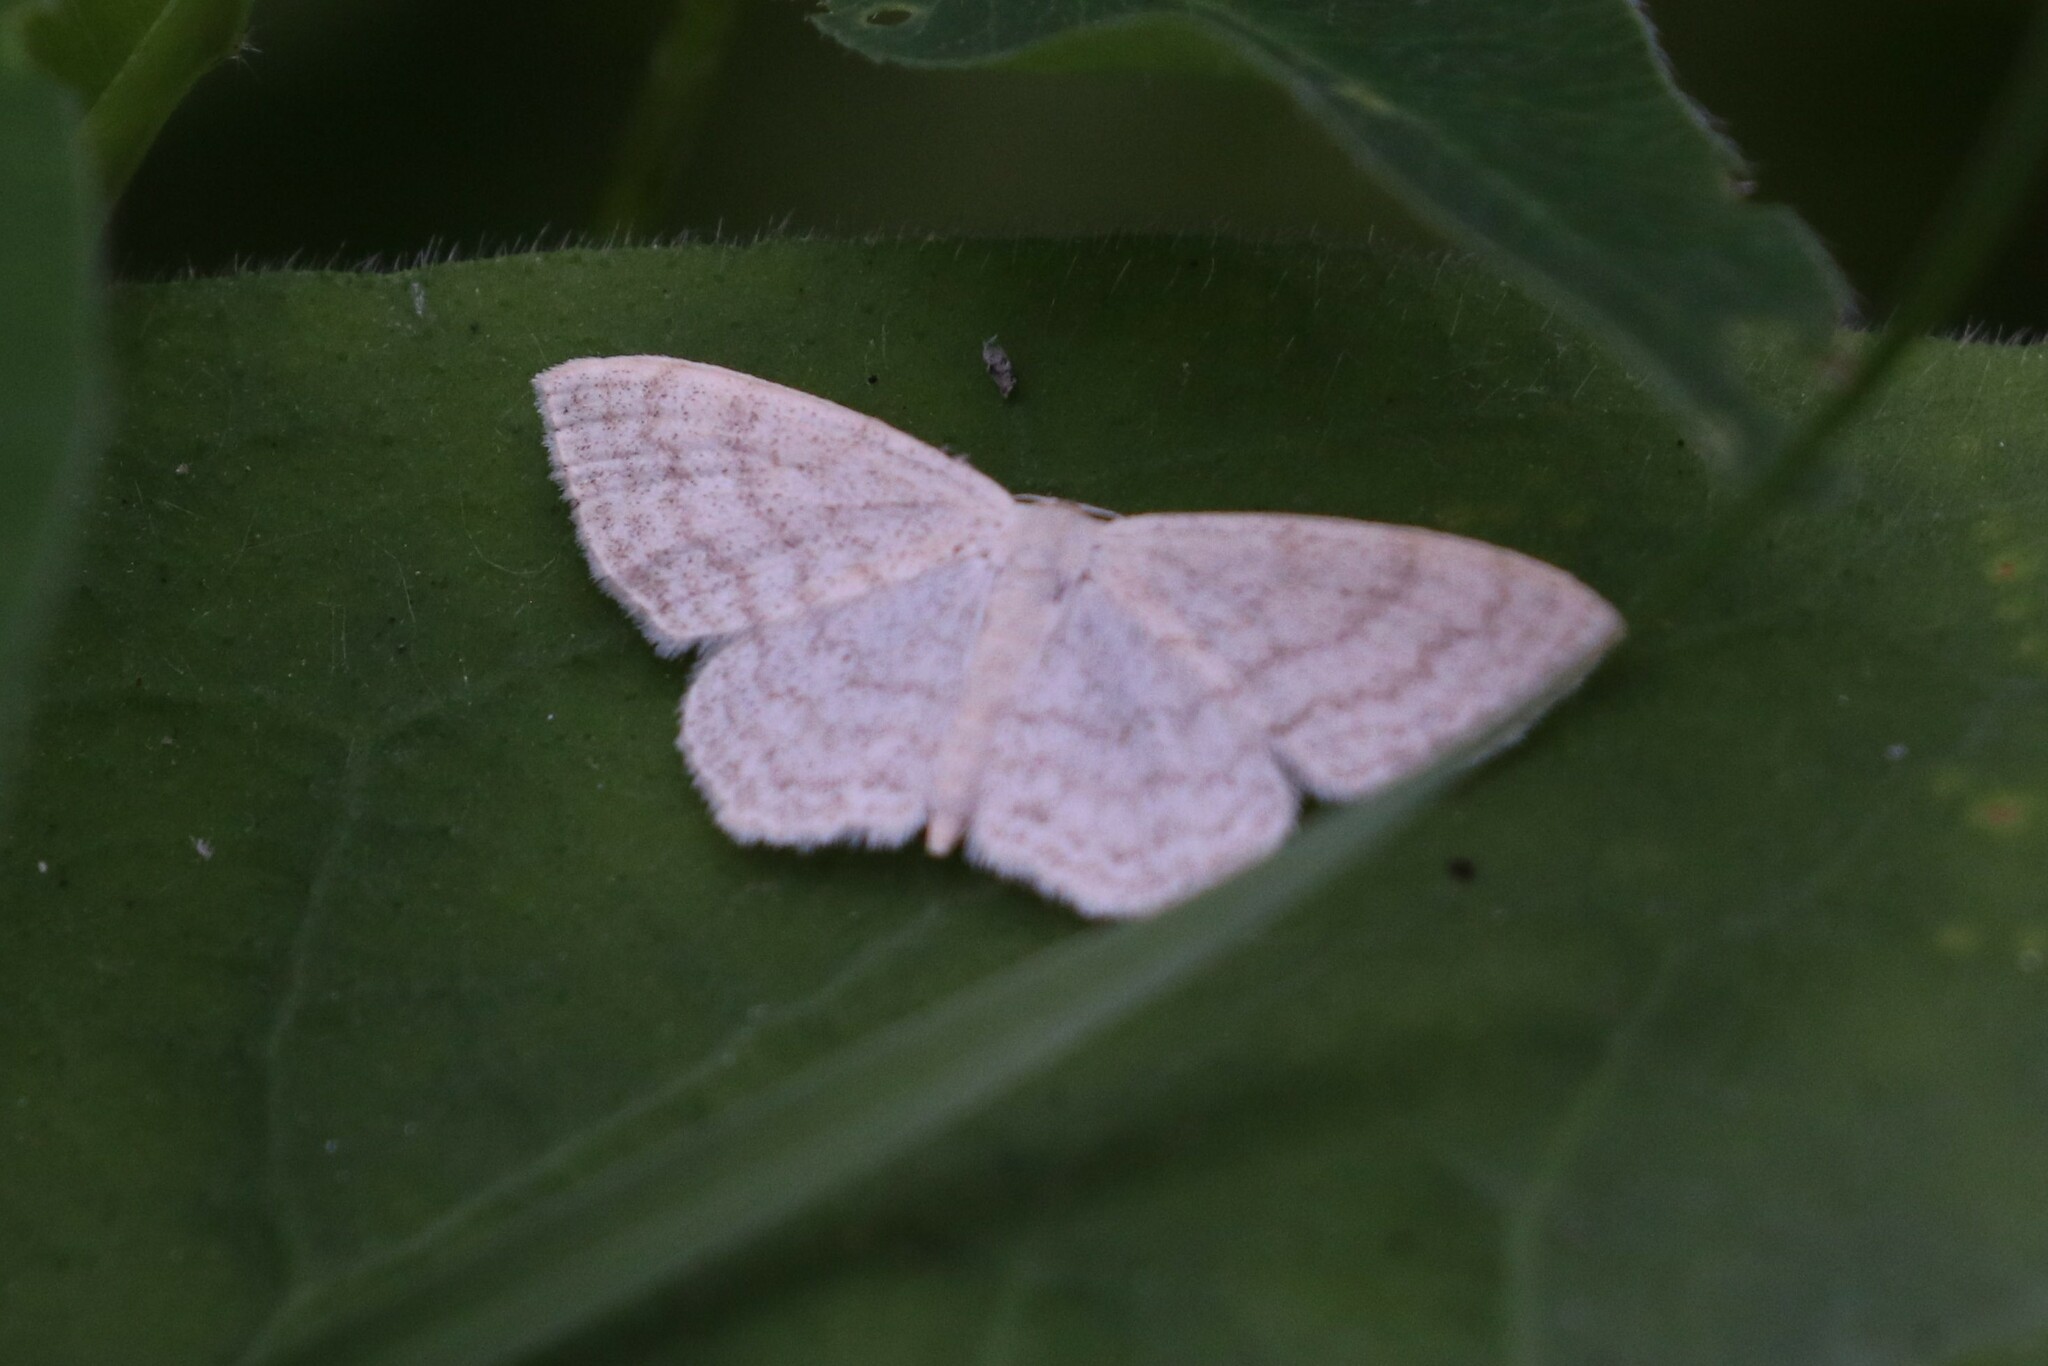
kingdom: Animalia
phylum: Arthropoda
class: Insecta
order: Lepidoptera
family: Geometridae
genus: Scopula
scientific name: Scopula floslactata
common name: Cream wave
